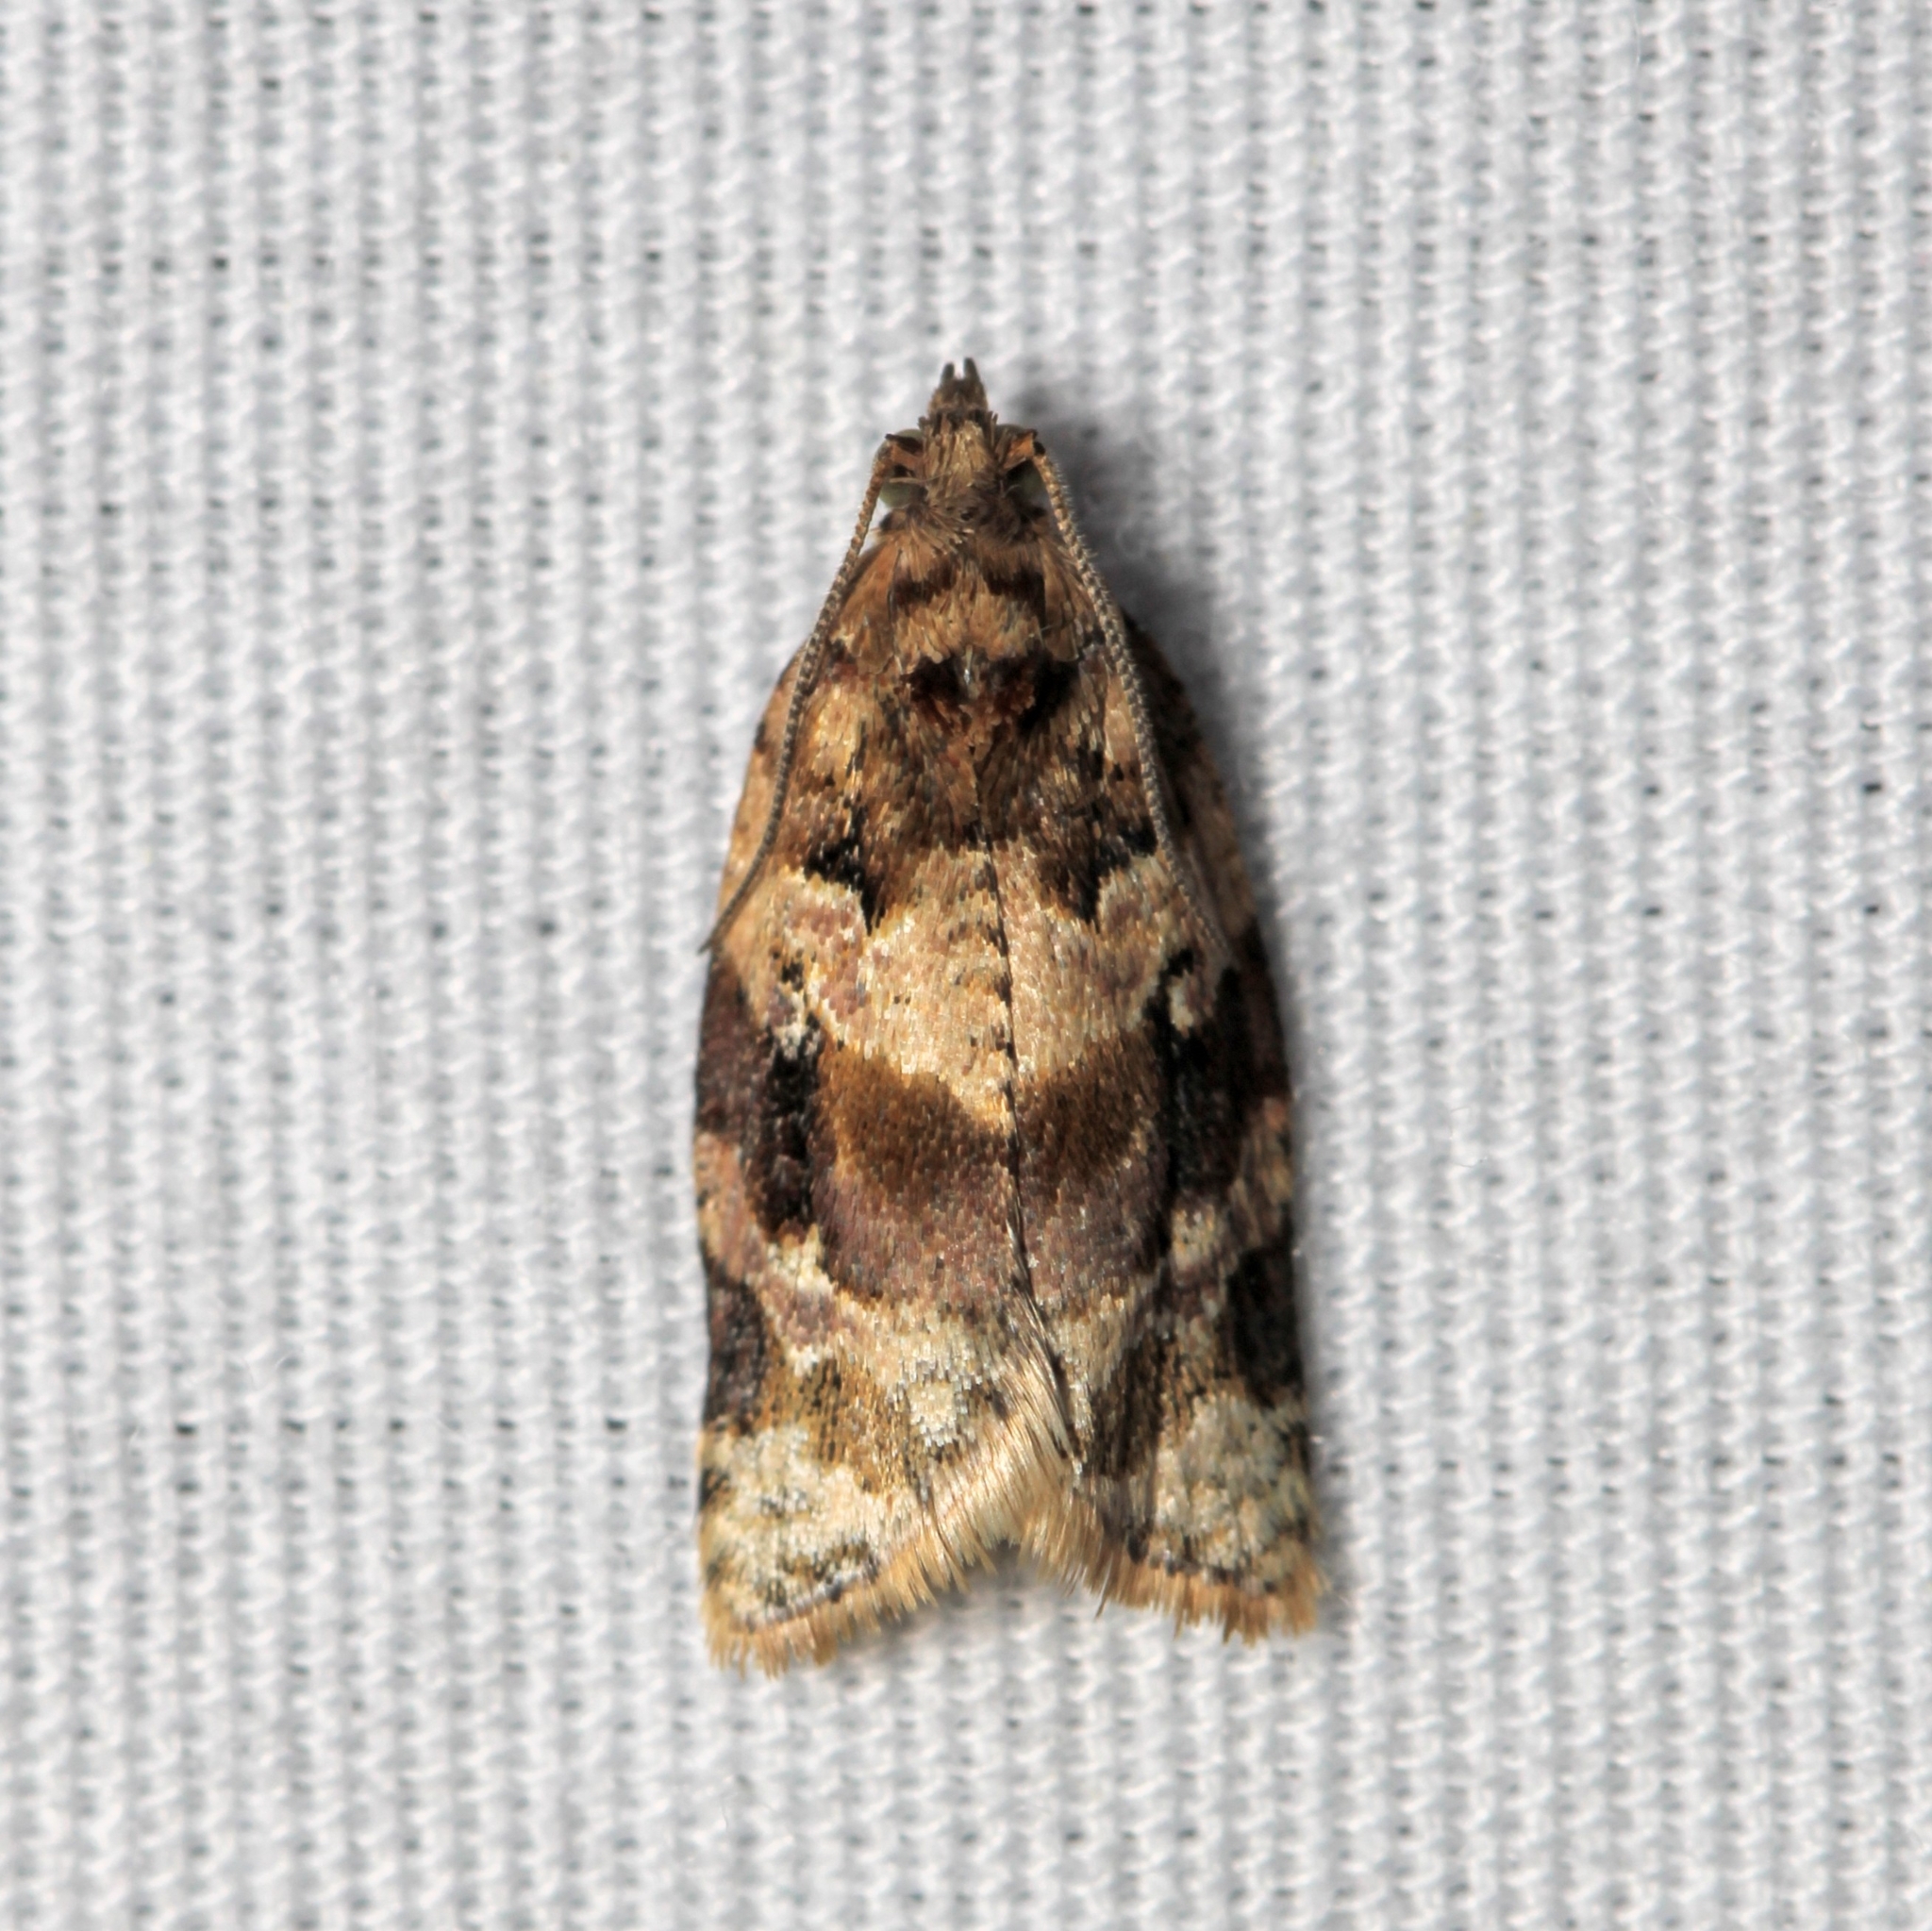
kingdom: Animalia
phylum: Arthropoda
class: Insecta
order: Lepidoptera
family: Tortricidae
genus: Argyrotaenia
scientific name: Argyrotaenia velutinana
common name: Red-banded leafroller moth
